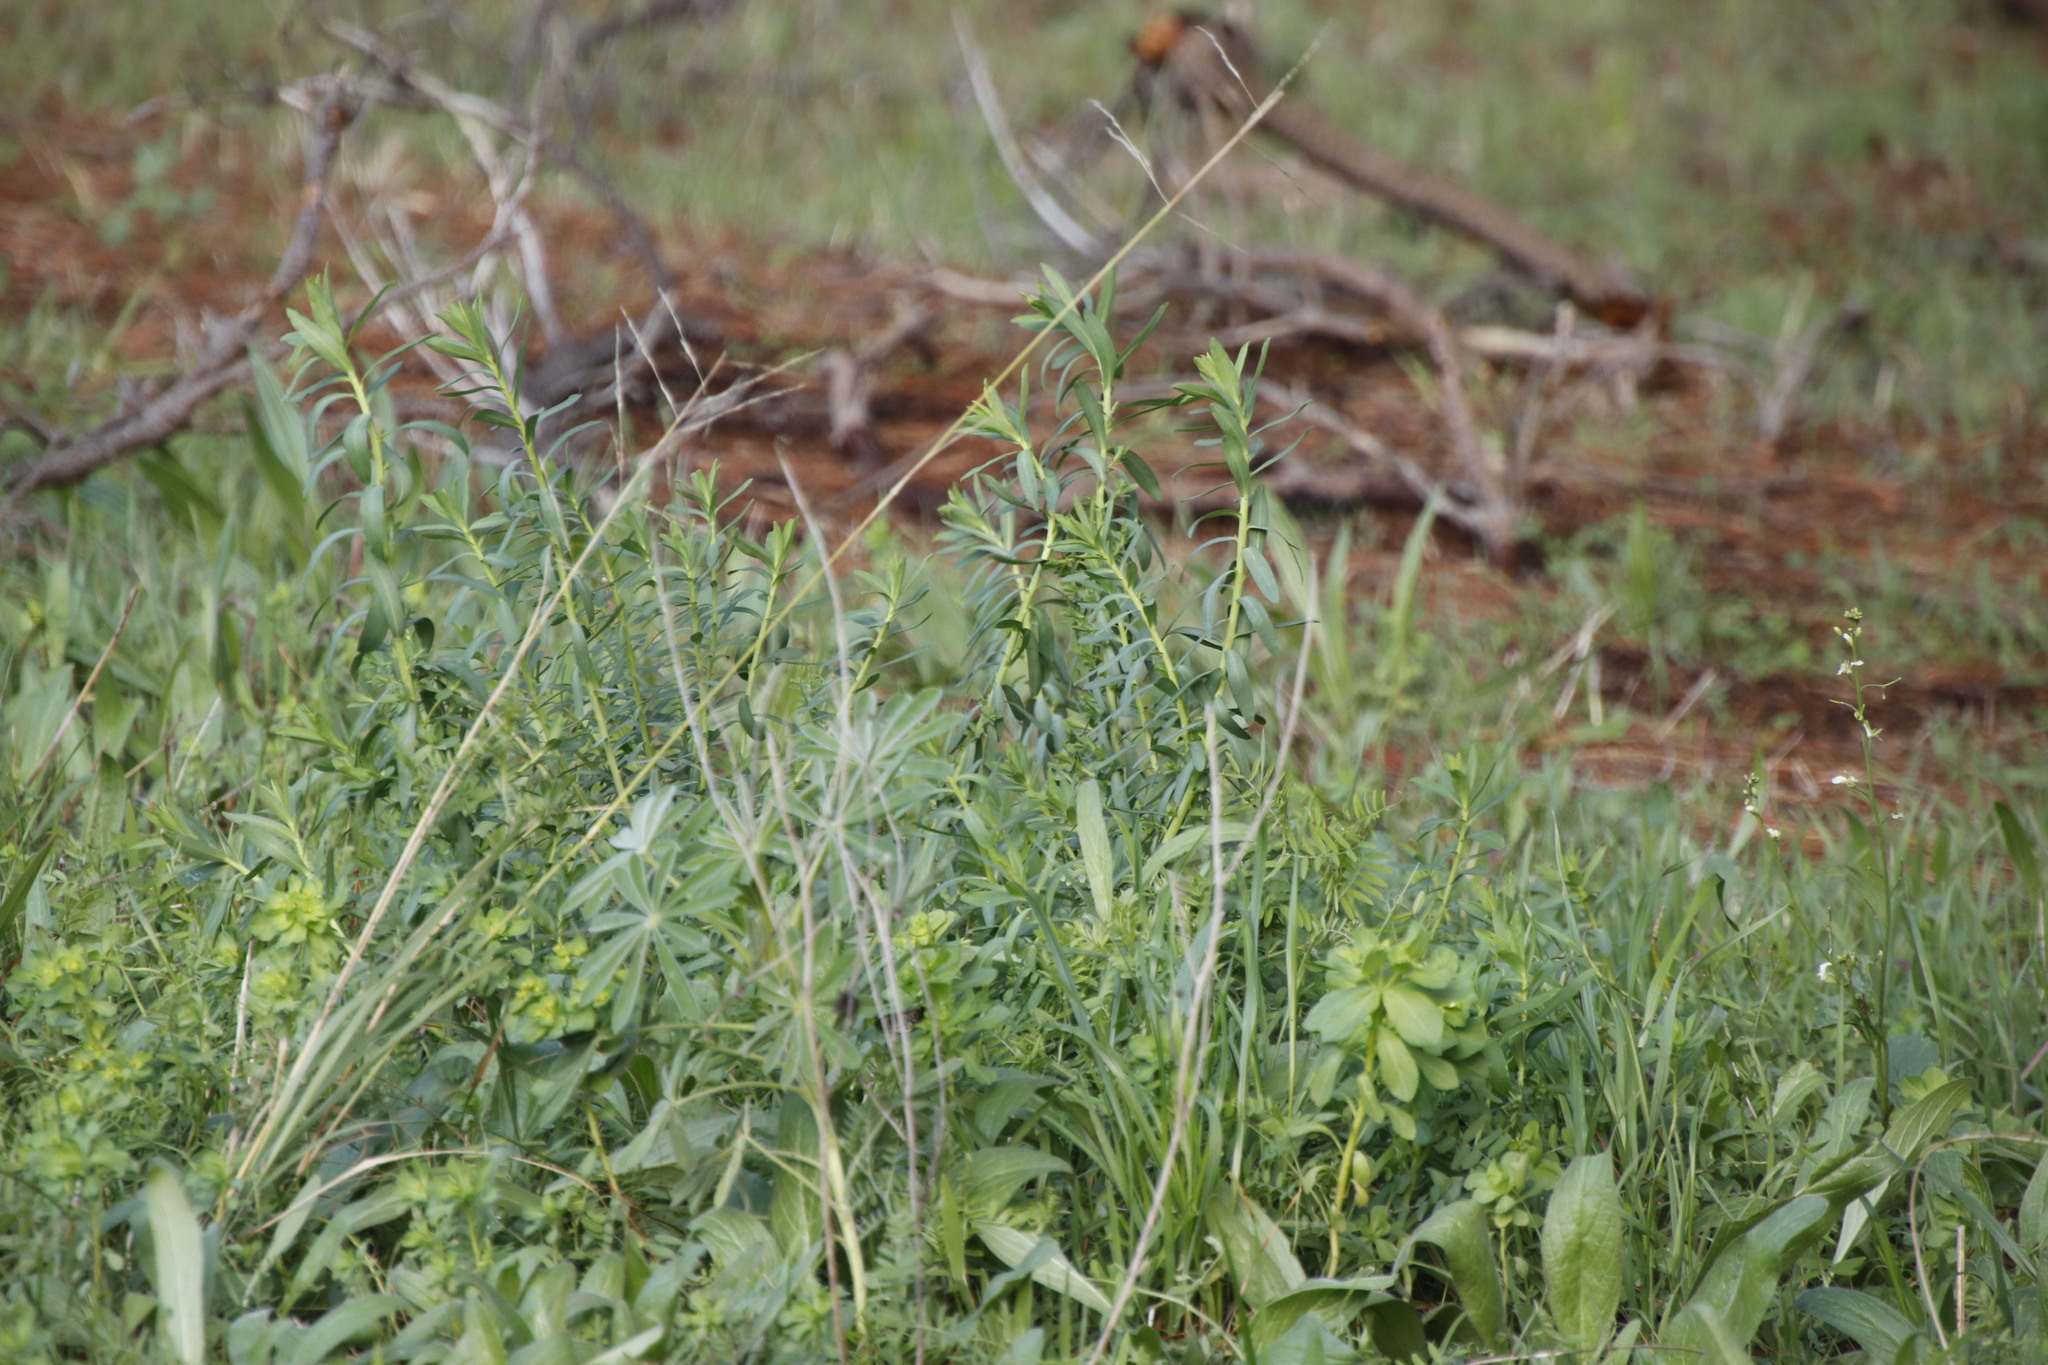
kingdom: Plantae
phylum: Tracheophyta
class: Magnoliopsida
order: Malpighiales
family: Euphorbiaceae
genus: Euphorbia
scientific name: Euphorbia terracina
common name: Geraldton carnation weed
